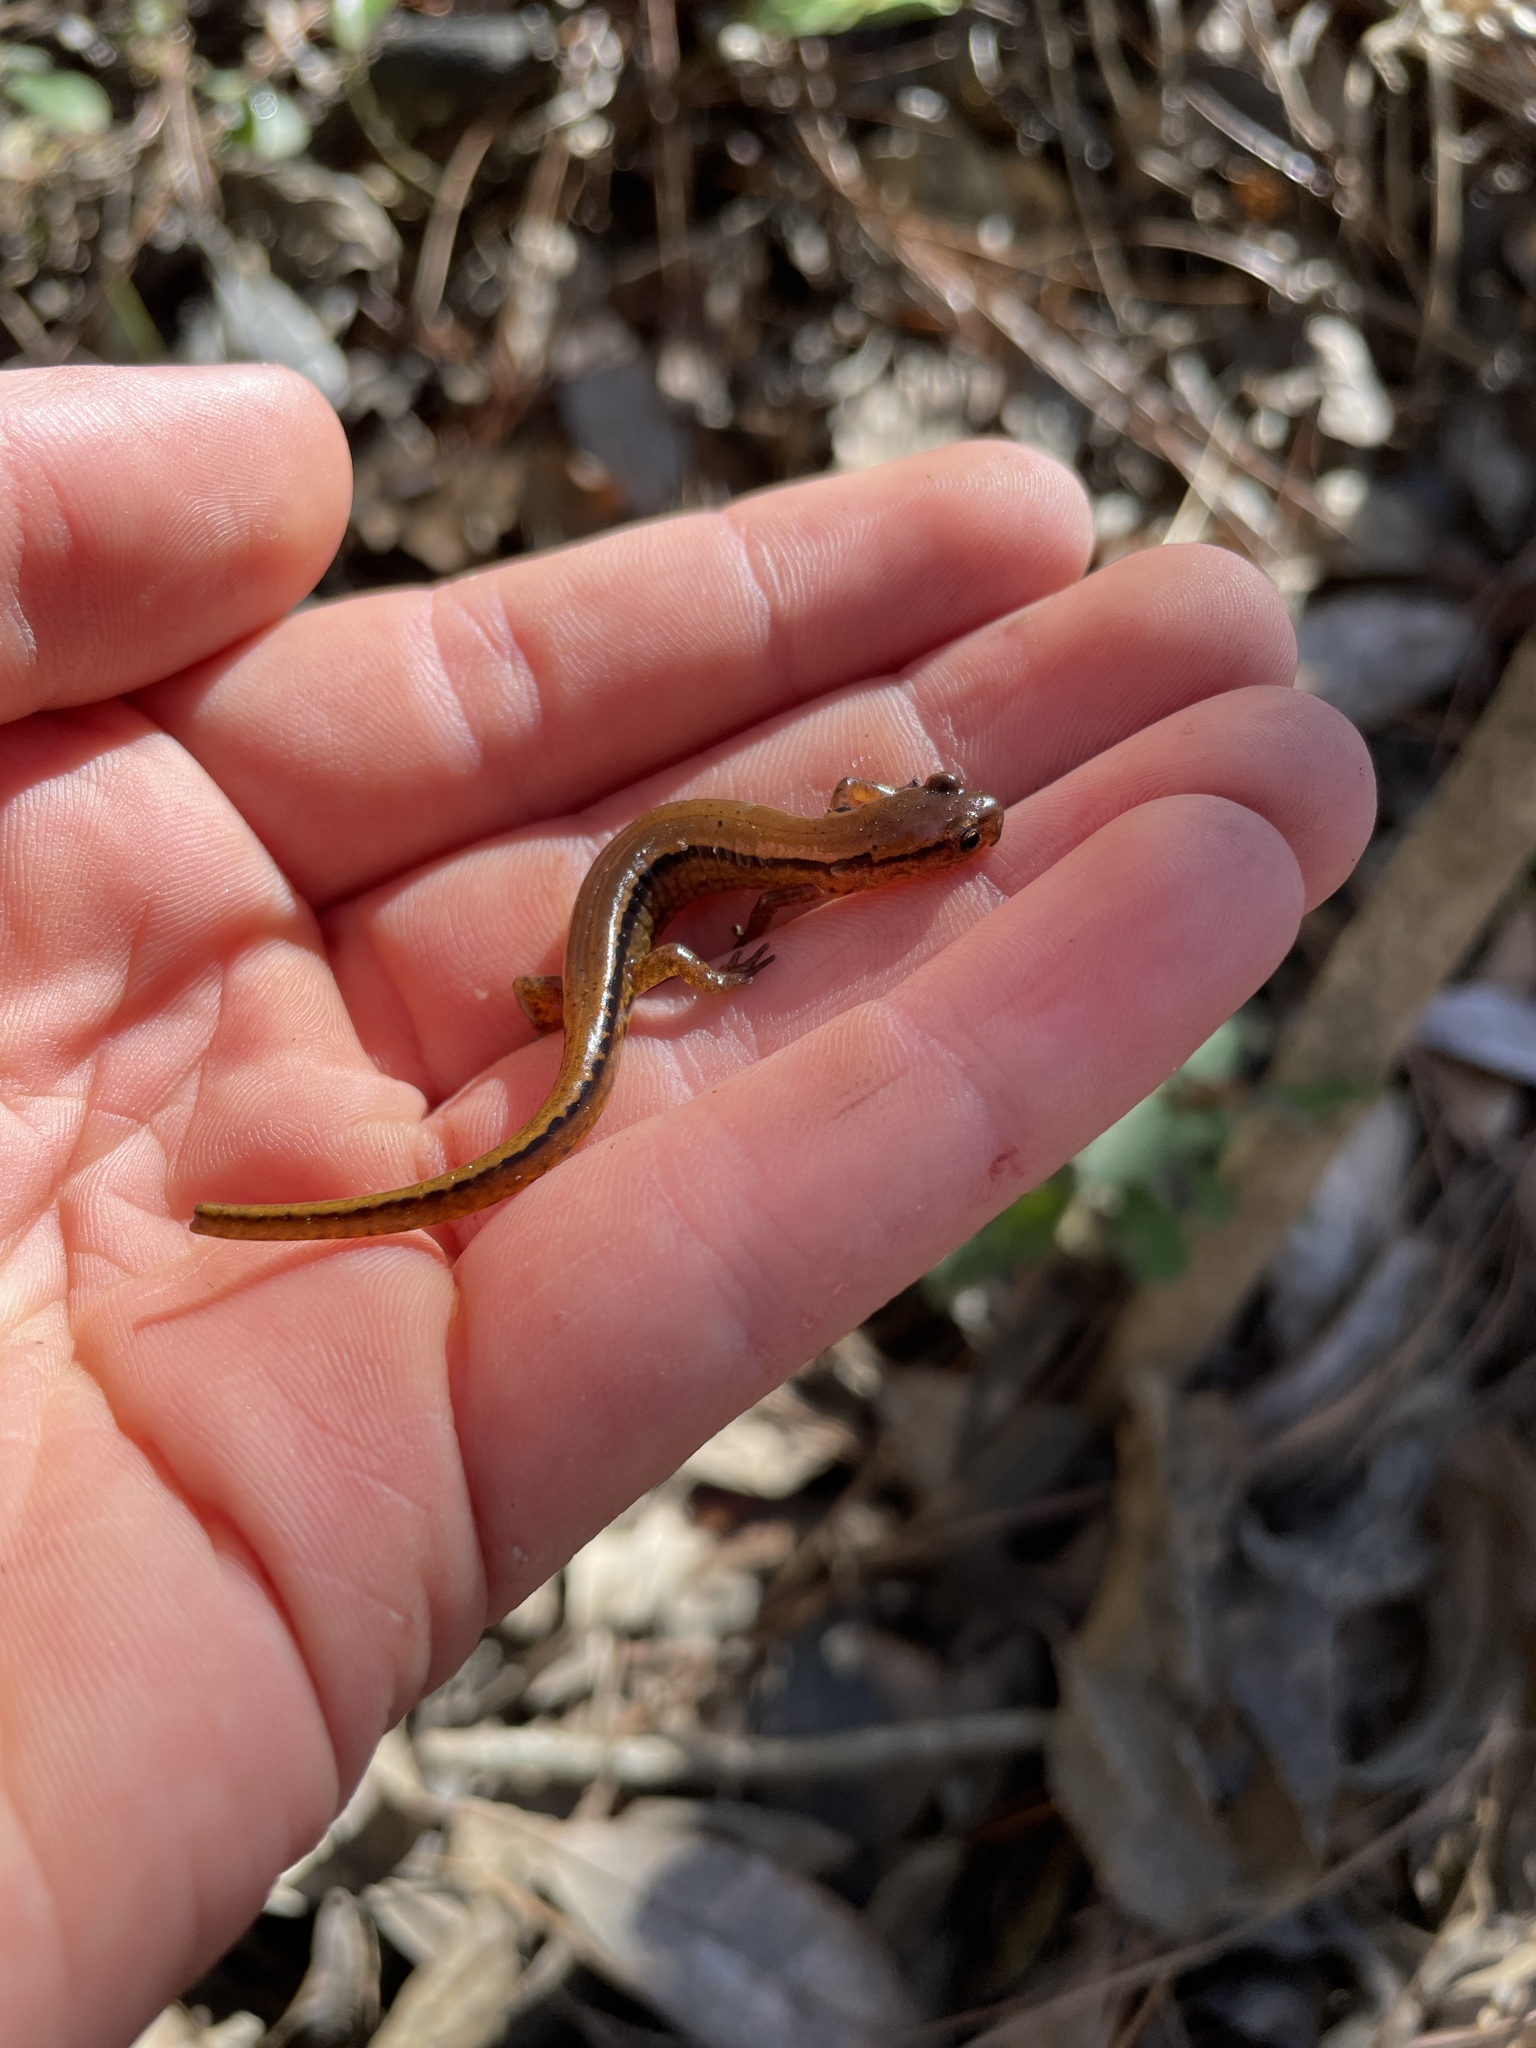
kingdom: Animalia
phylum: Chordata
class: Amphibia
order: Caudata
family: Plethodontidae
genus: Eurycea
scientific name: Eurycea cirrigera
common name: Southern two-lined salamander
